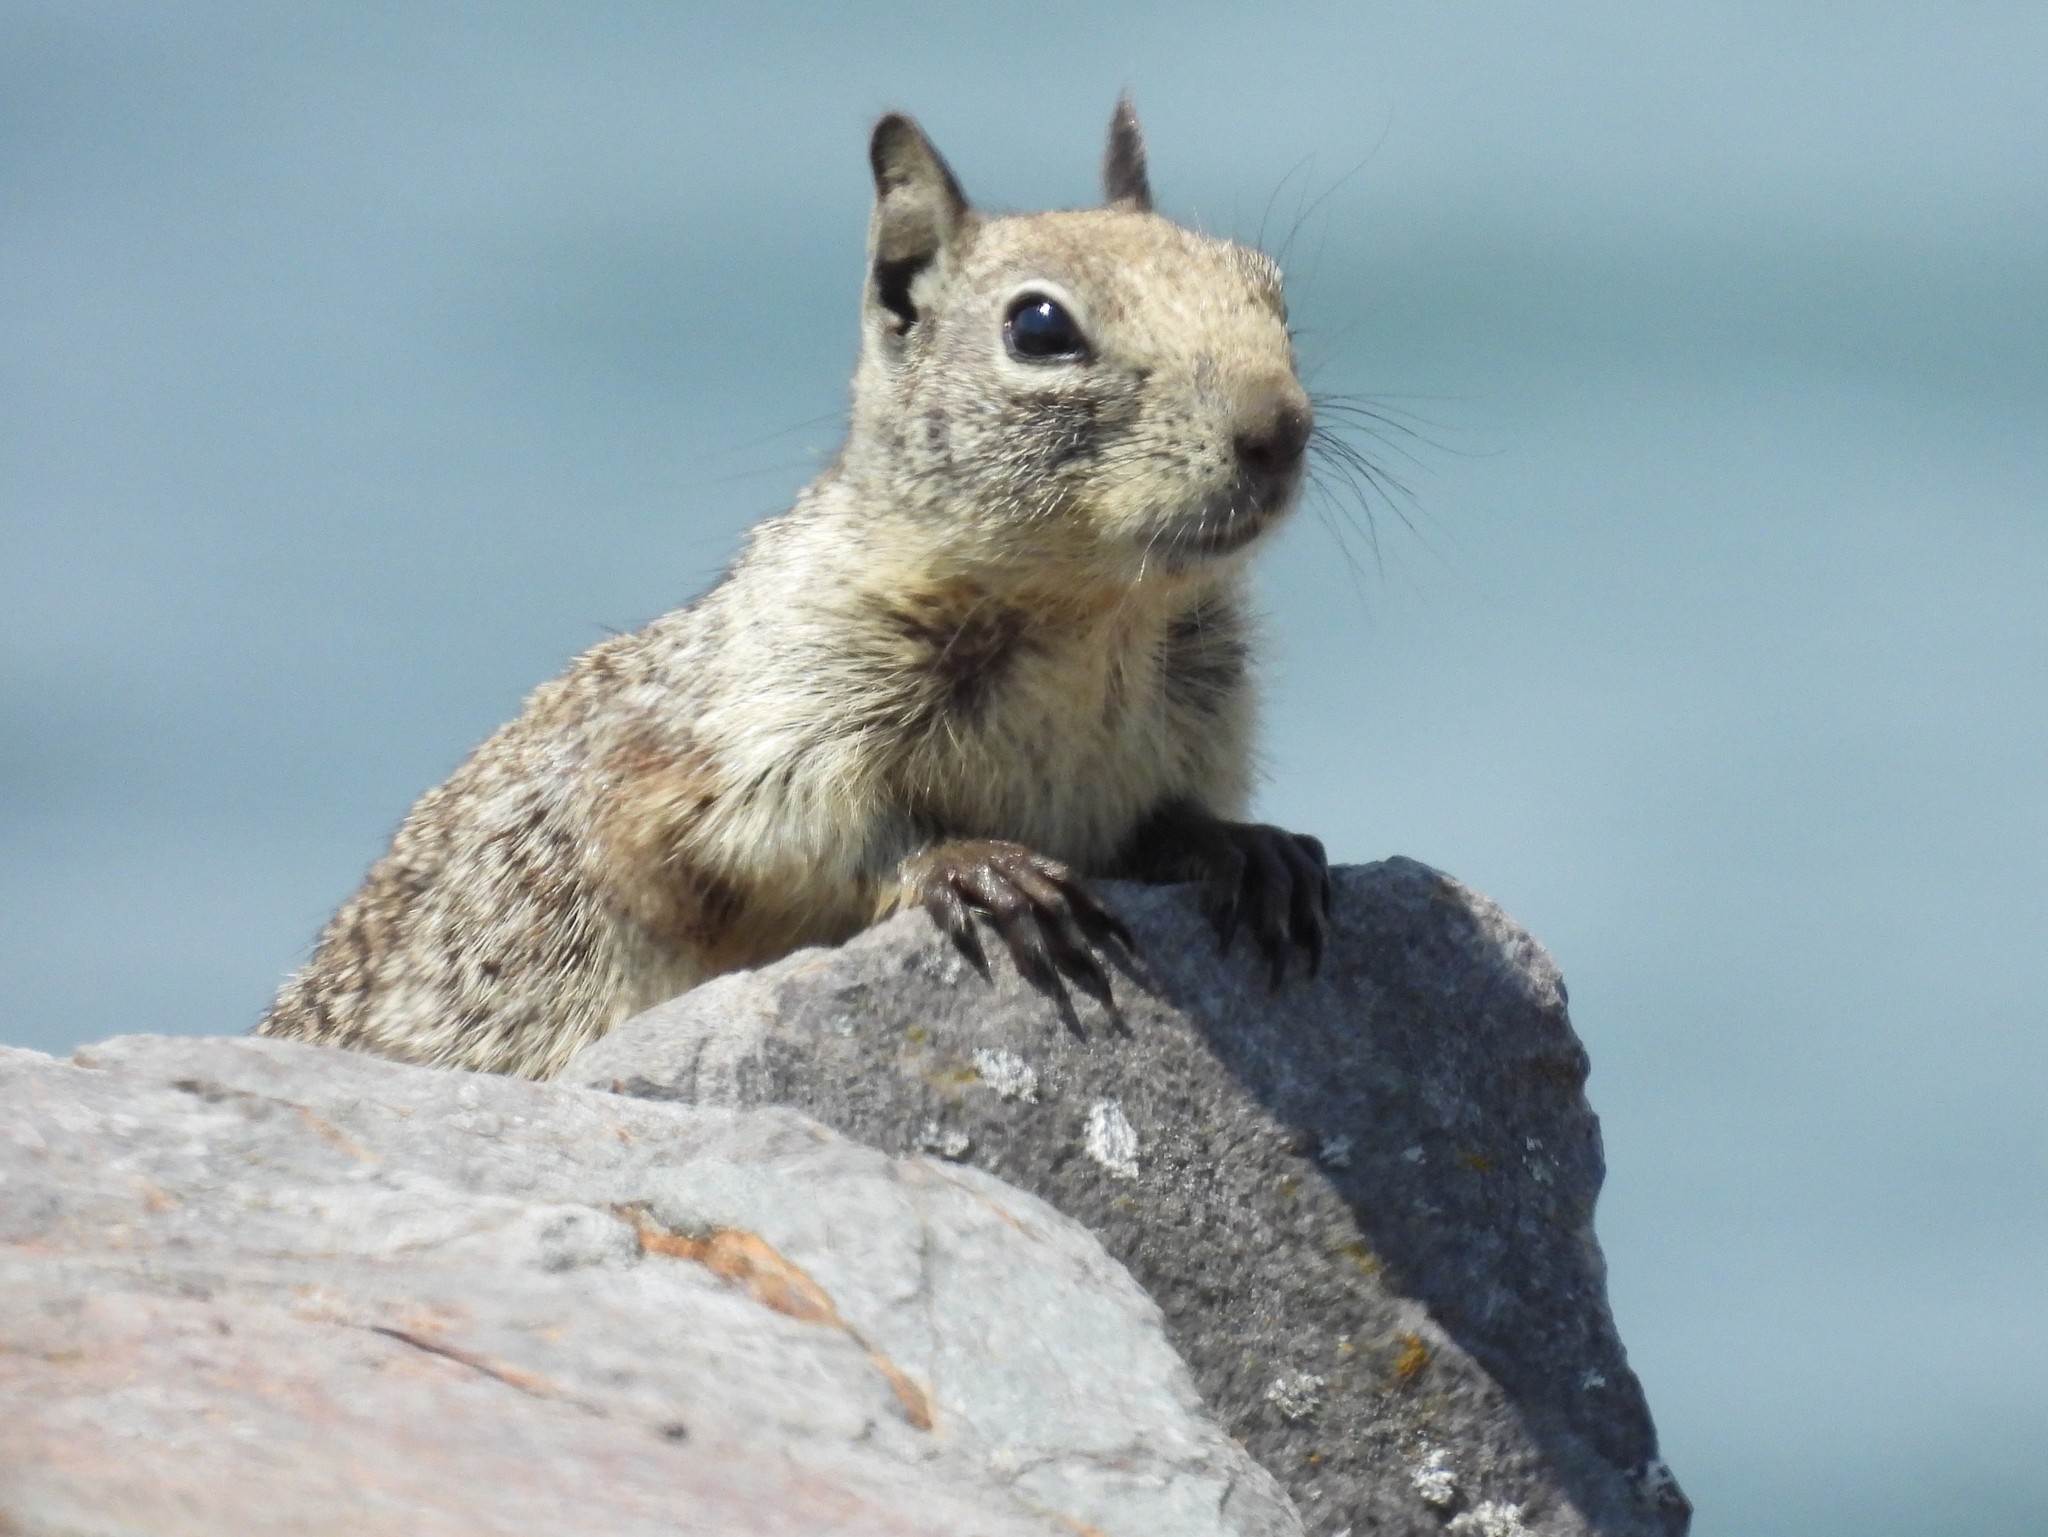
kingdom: Animalia
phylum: Chordata
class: Mammalia
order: Rodentia
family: Sciuridae
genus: Otospermophilus
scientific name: Otospermophilus beecheyi
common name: California ground squirrel
